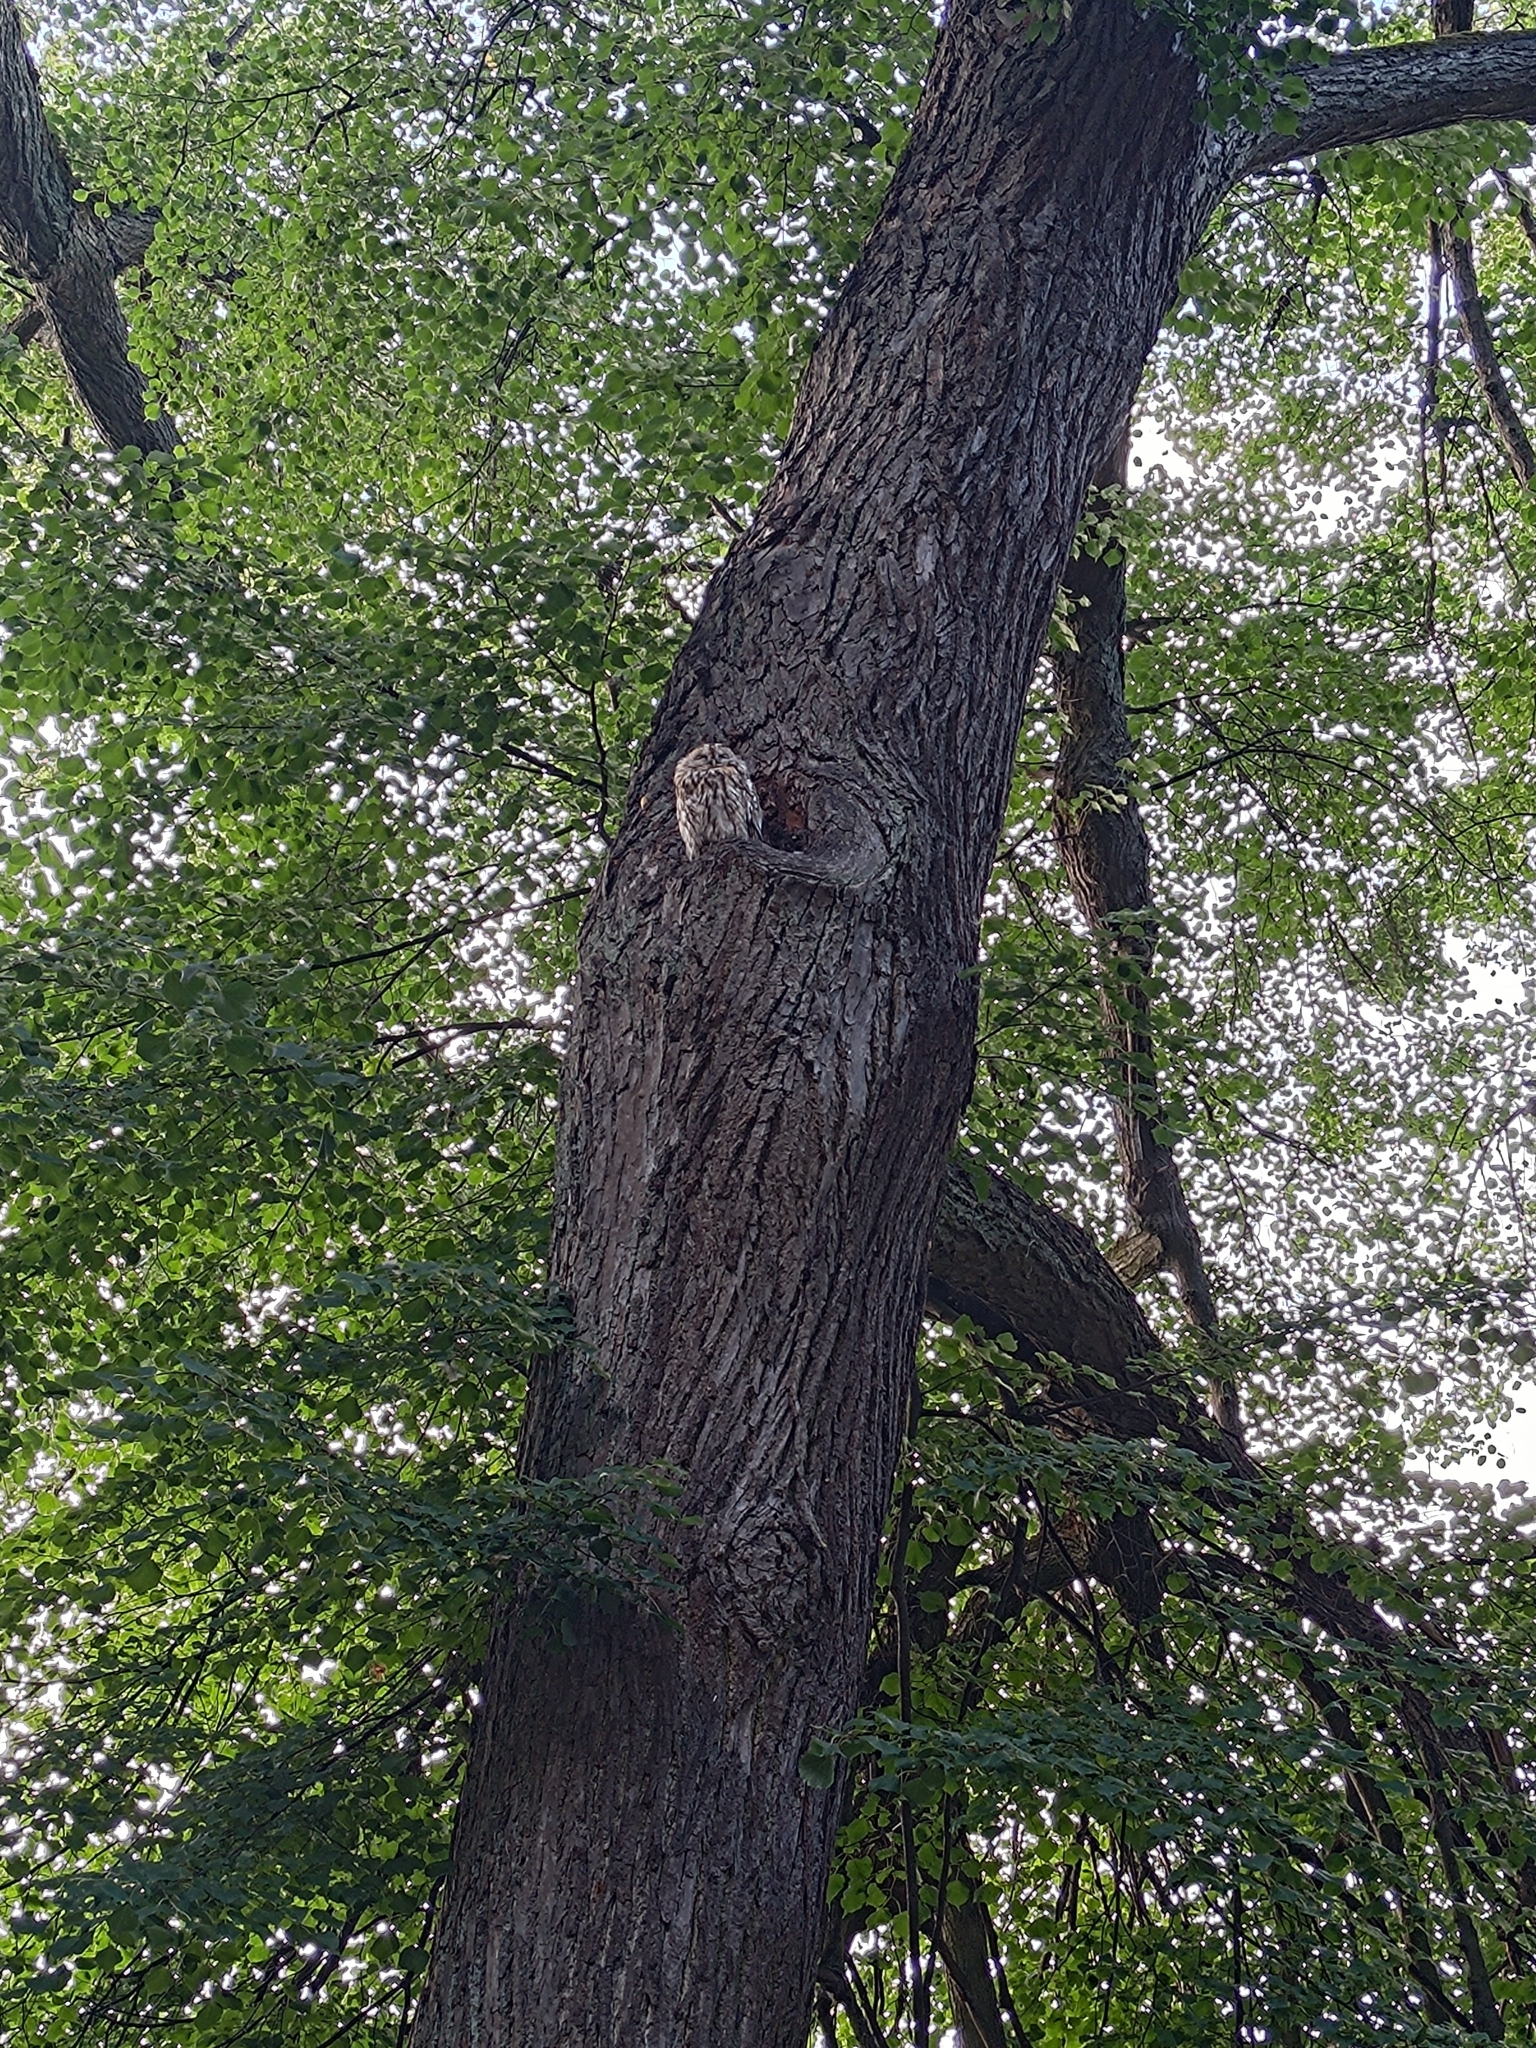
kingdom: Animalia
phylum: Chordata
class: Aves
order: Strigiformes
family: Strigidae
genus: Strix
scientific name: Strix aluco
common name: Tawny owl
